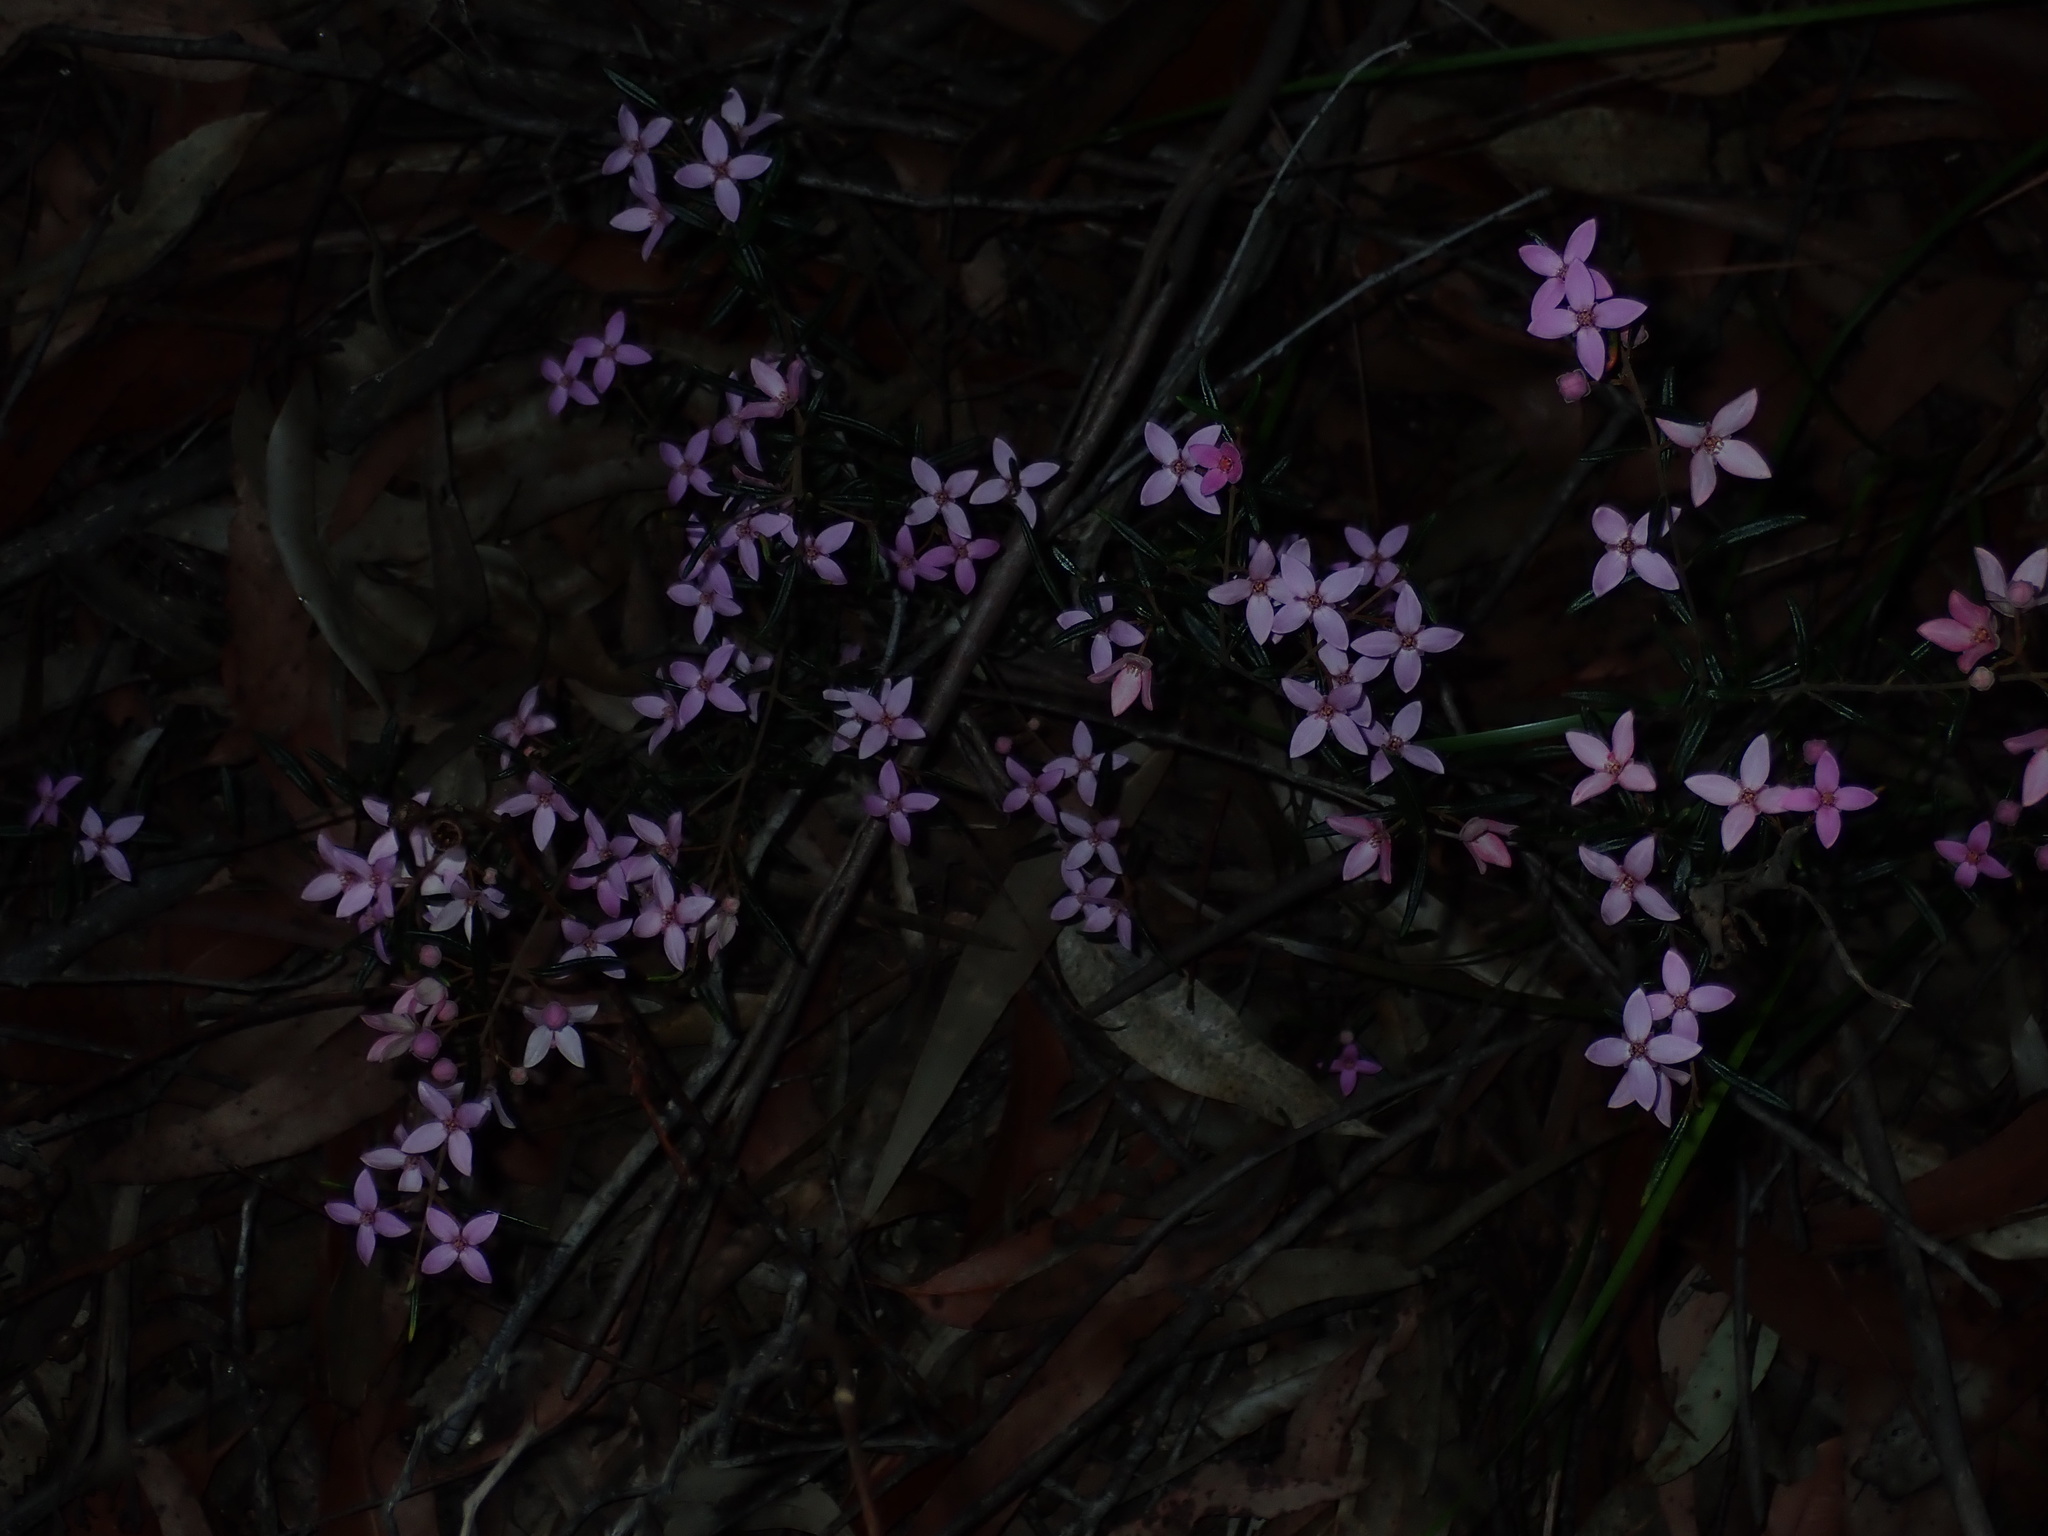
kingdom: Plantae
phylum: Tracheophyta
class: Magnoliopsida
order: Sapindales
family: Rutaceae
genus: Boronia
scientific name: Boronia ledifolia
